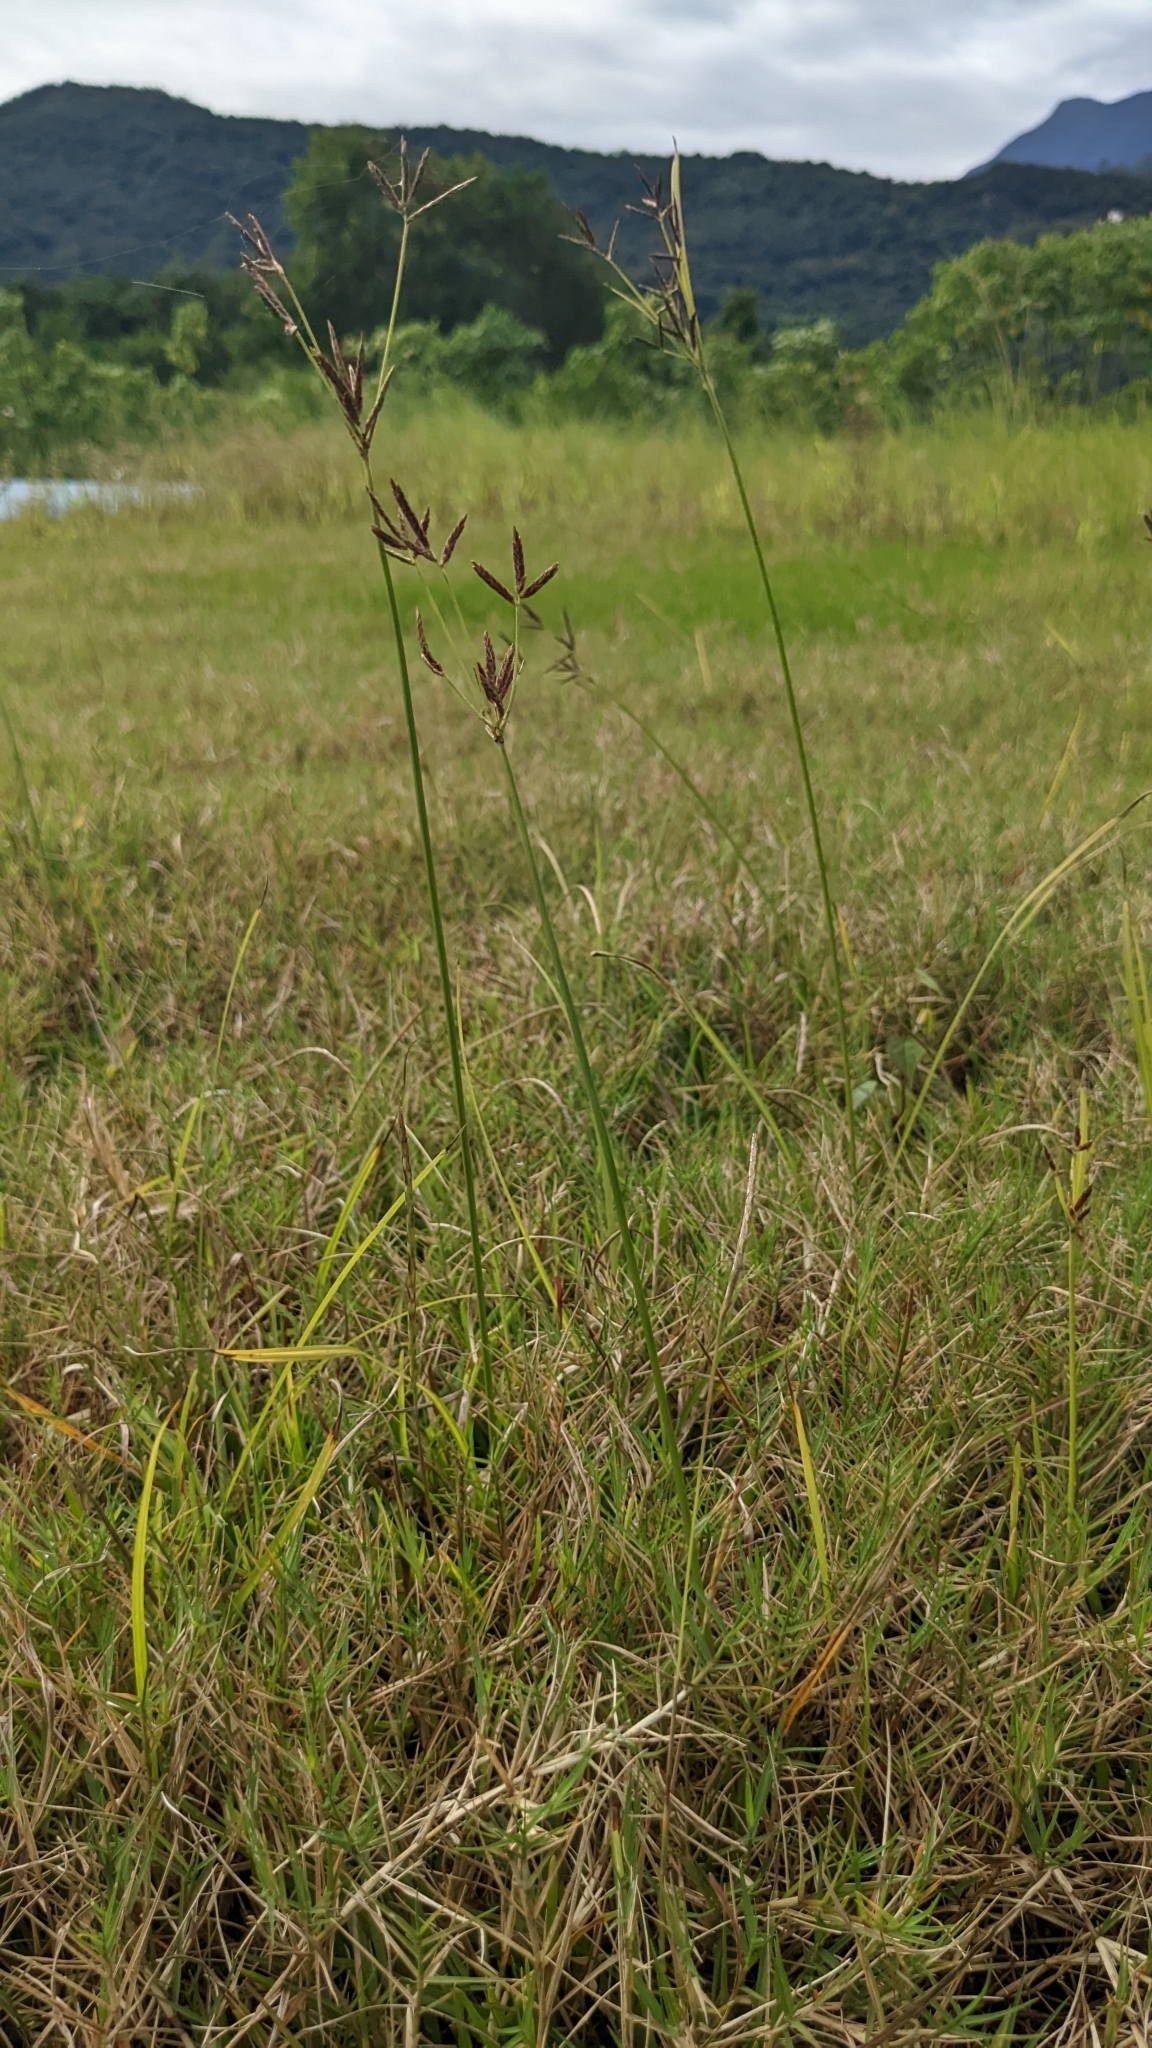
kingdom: Plantae
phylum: Tracheophyta
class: Liliopsida
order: Poales
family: Cyperaceae
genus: Cyperus
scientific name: Cyperus rotundus
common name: Nutgrass
